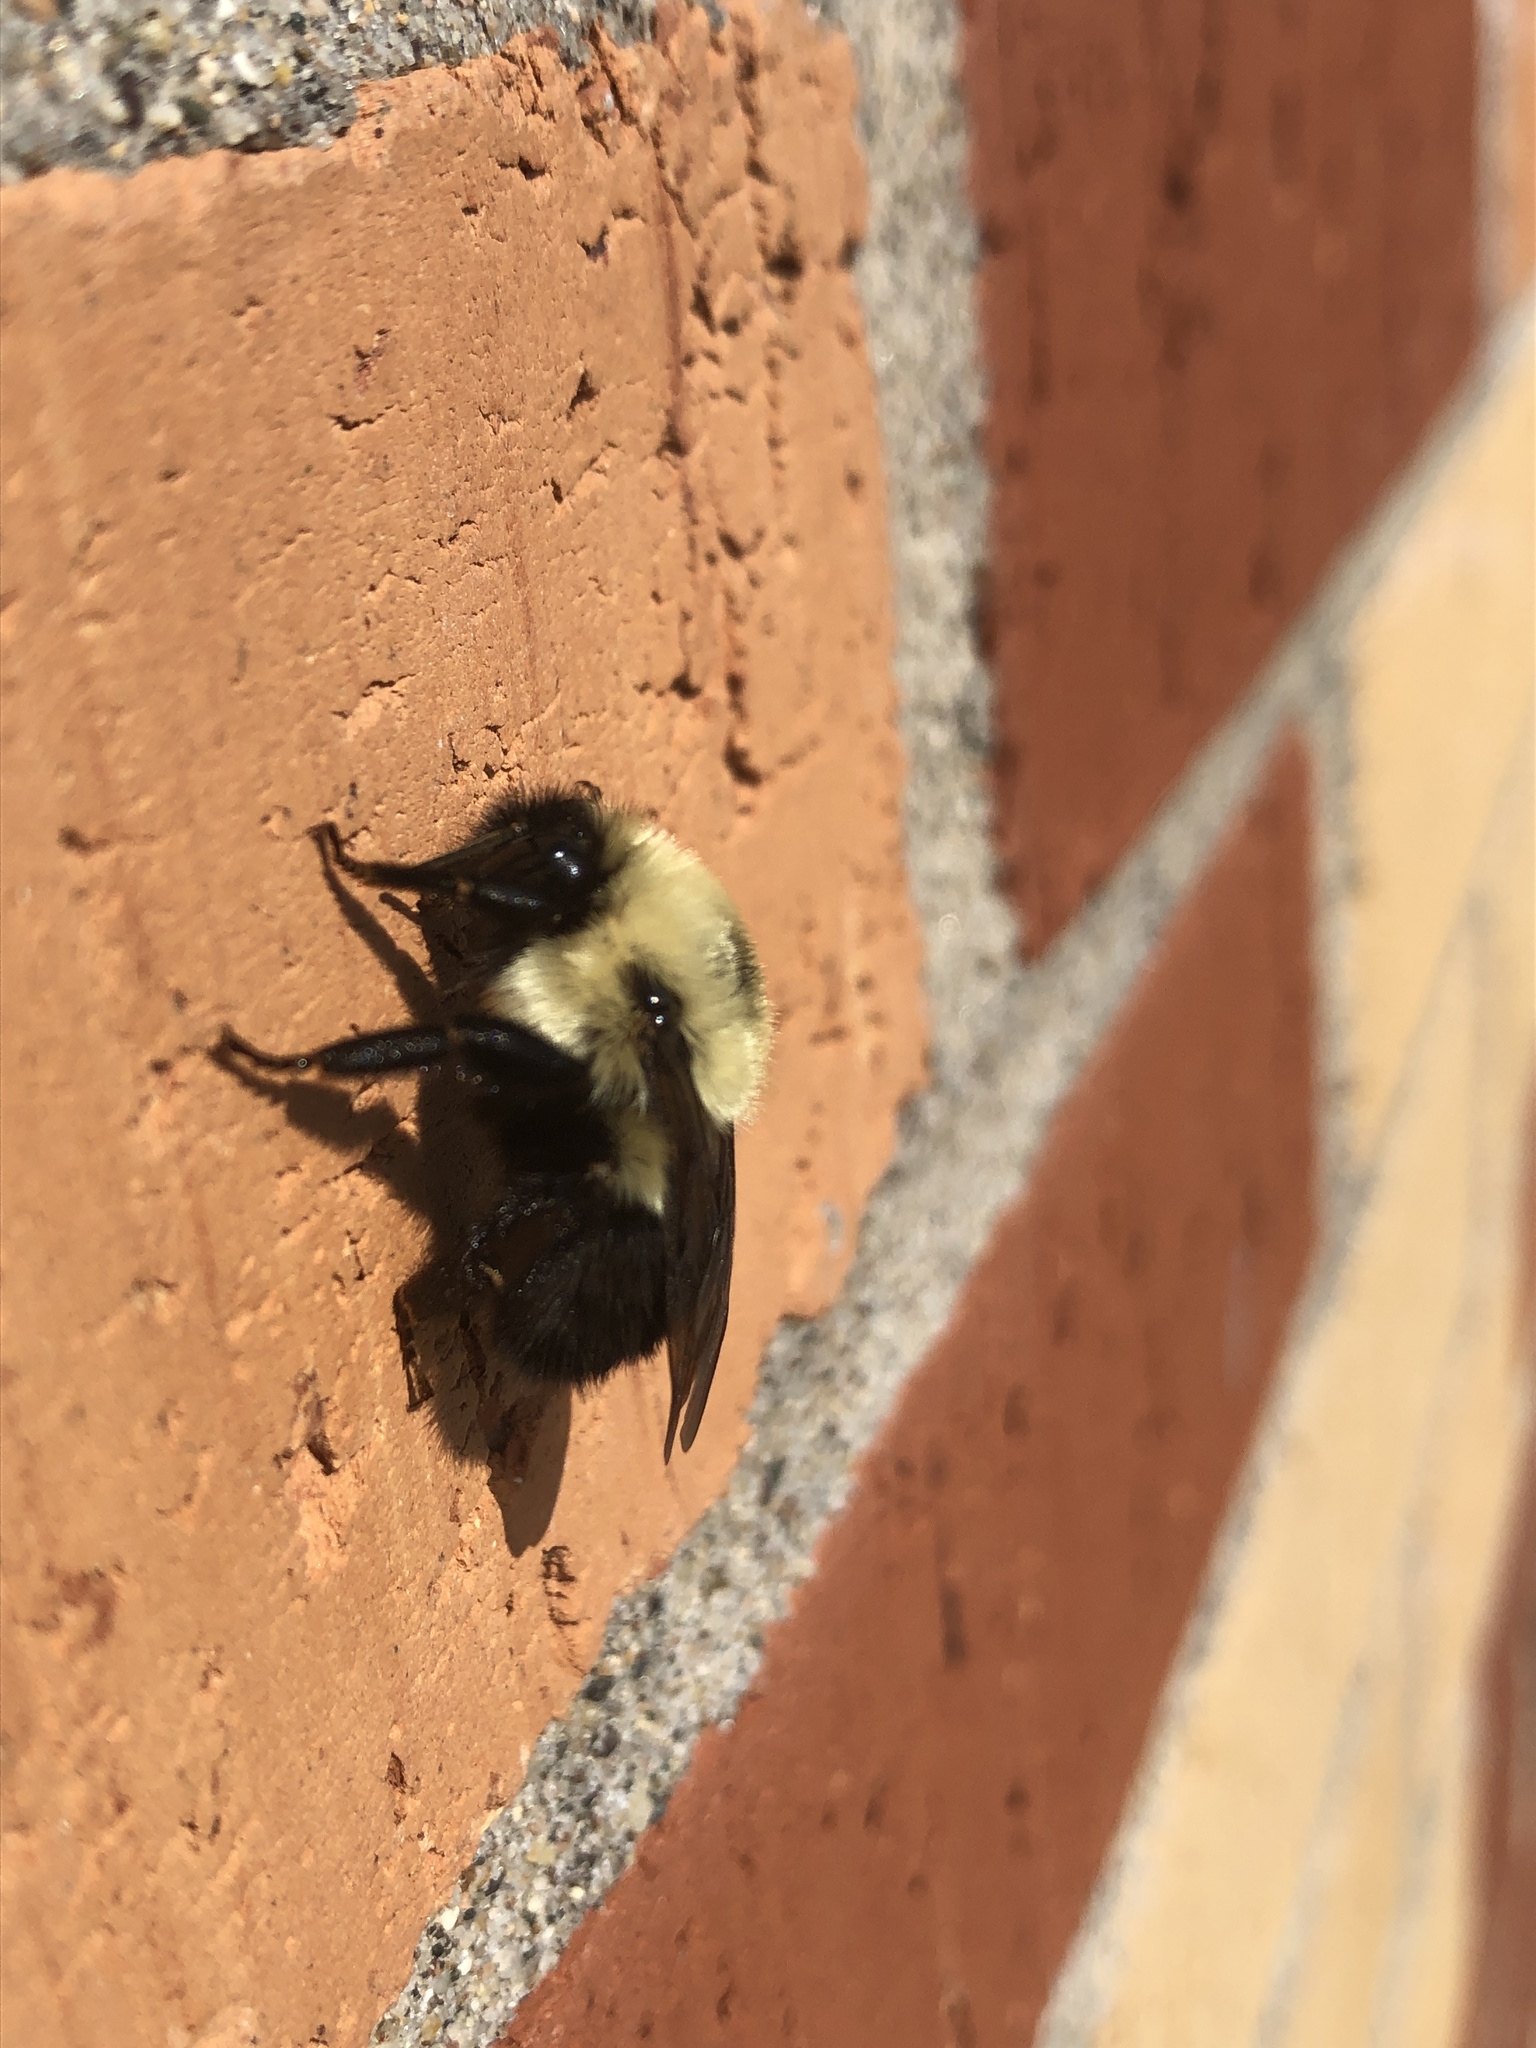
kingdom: Animalia
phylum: Arthropoda
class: Insecta
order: Hymenoptera
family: Apidae
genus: Bombus
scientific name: Bombus bimaculatus
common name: Two-spotted bumble bee
